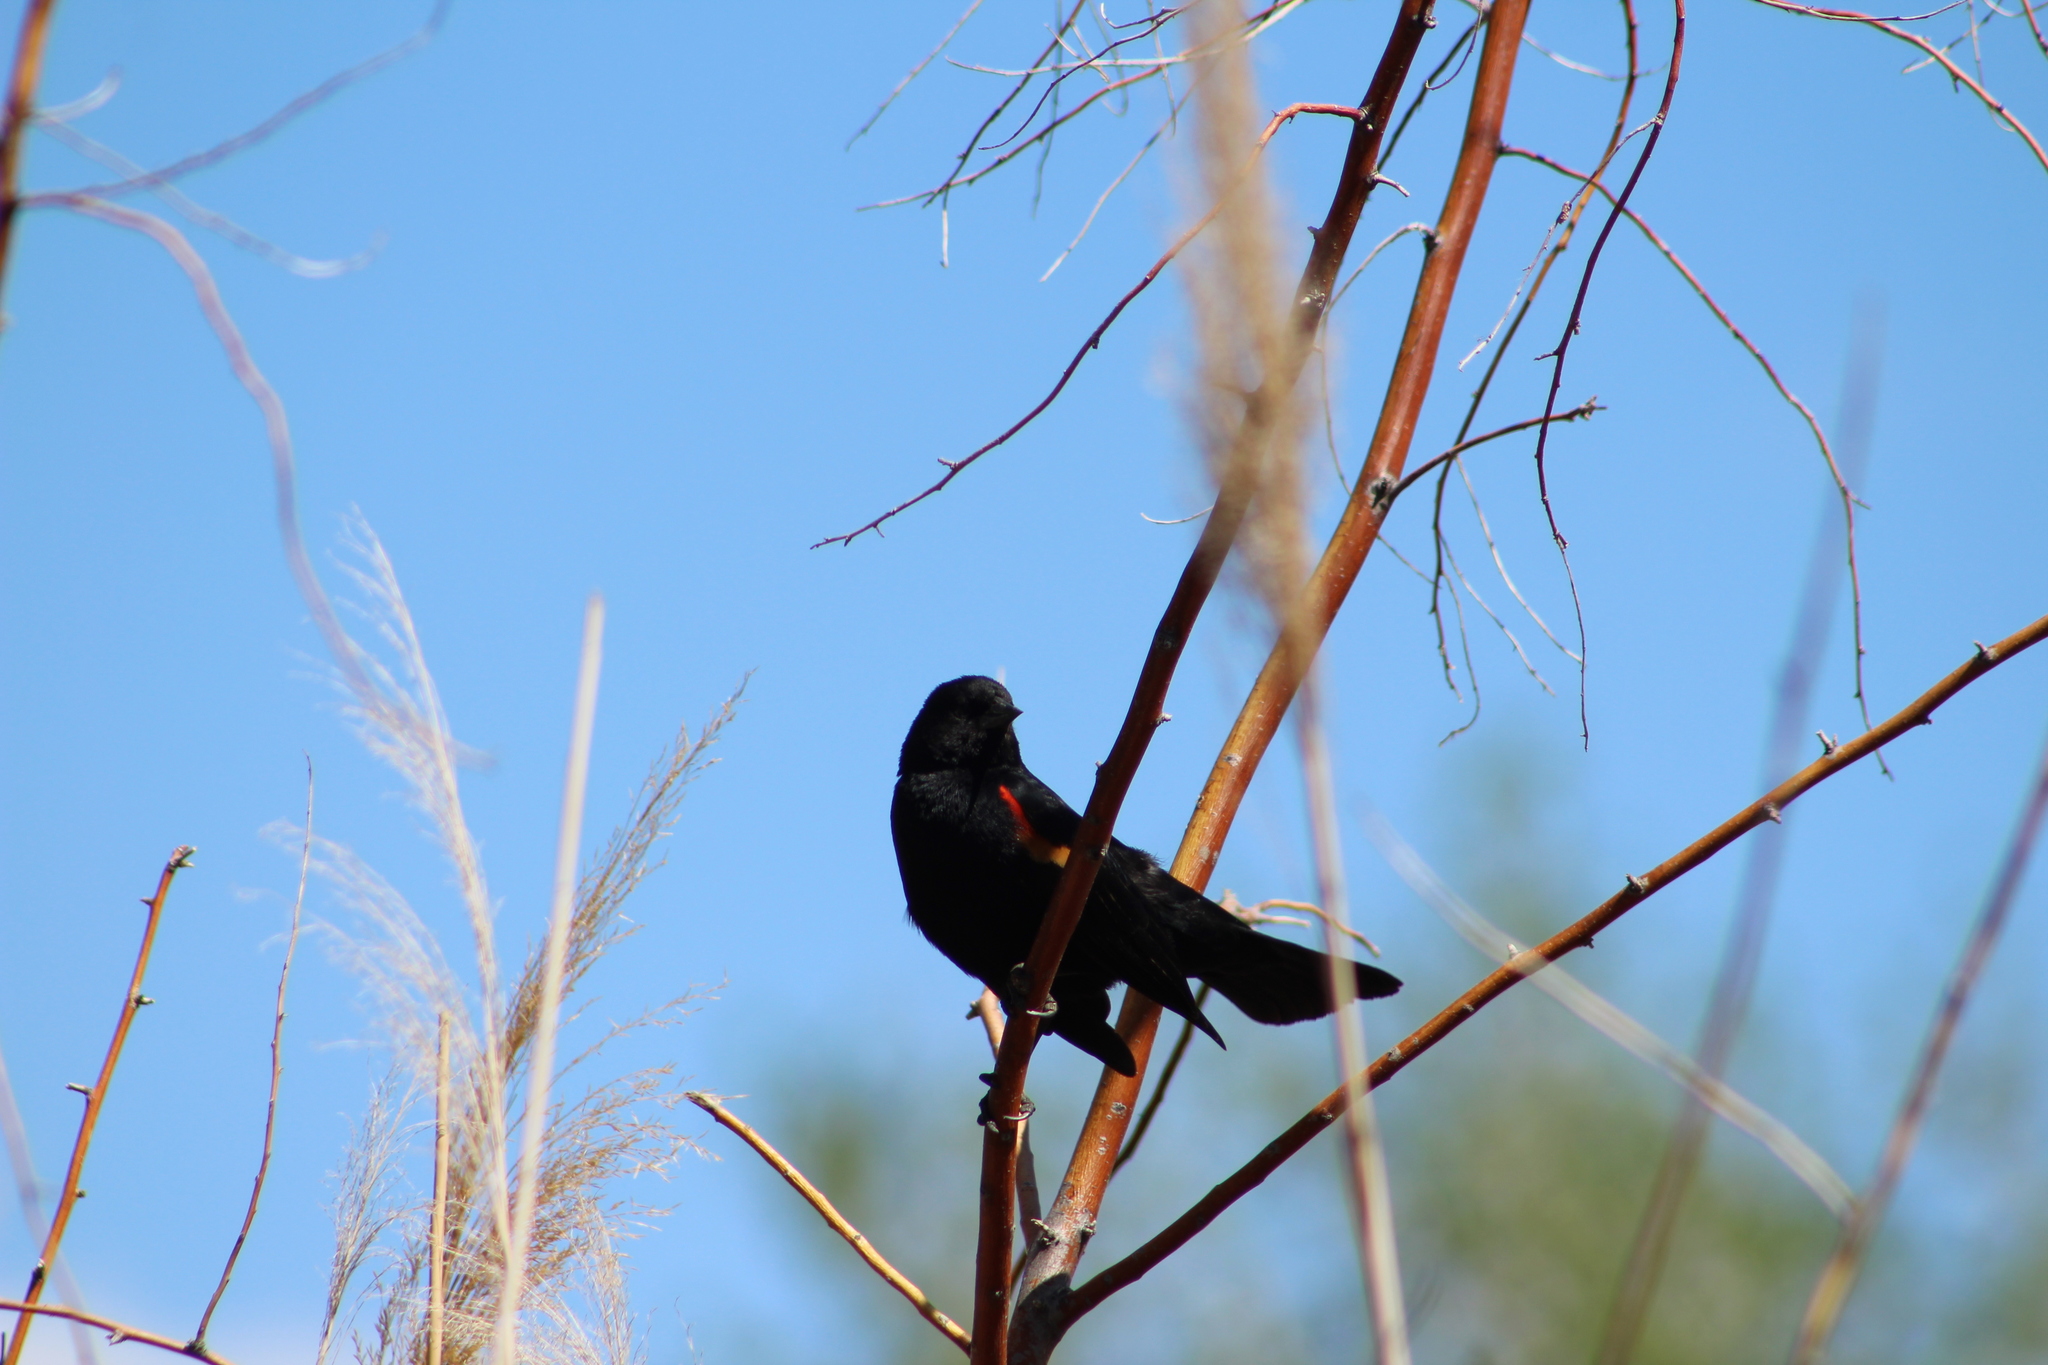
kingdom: Animalia
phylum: Chordata
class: Aves
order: Passeriformes
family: Icteridae
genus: Agelaius
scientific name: Agelaius phoeniceus
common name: Red-winged blackbird
